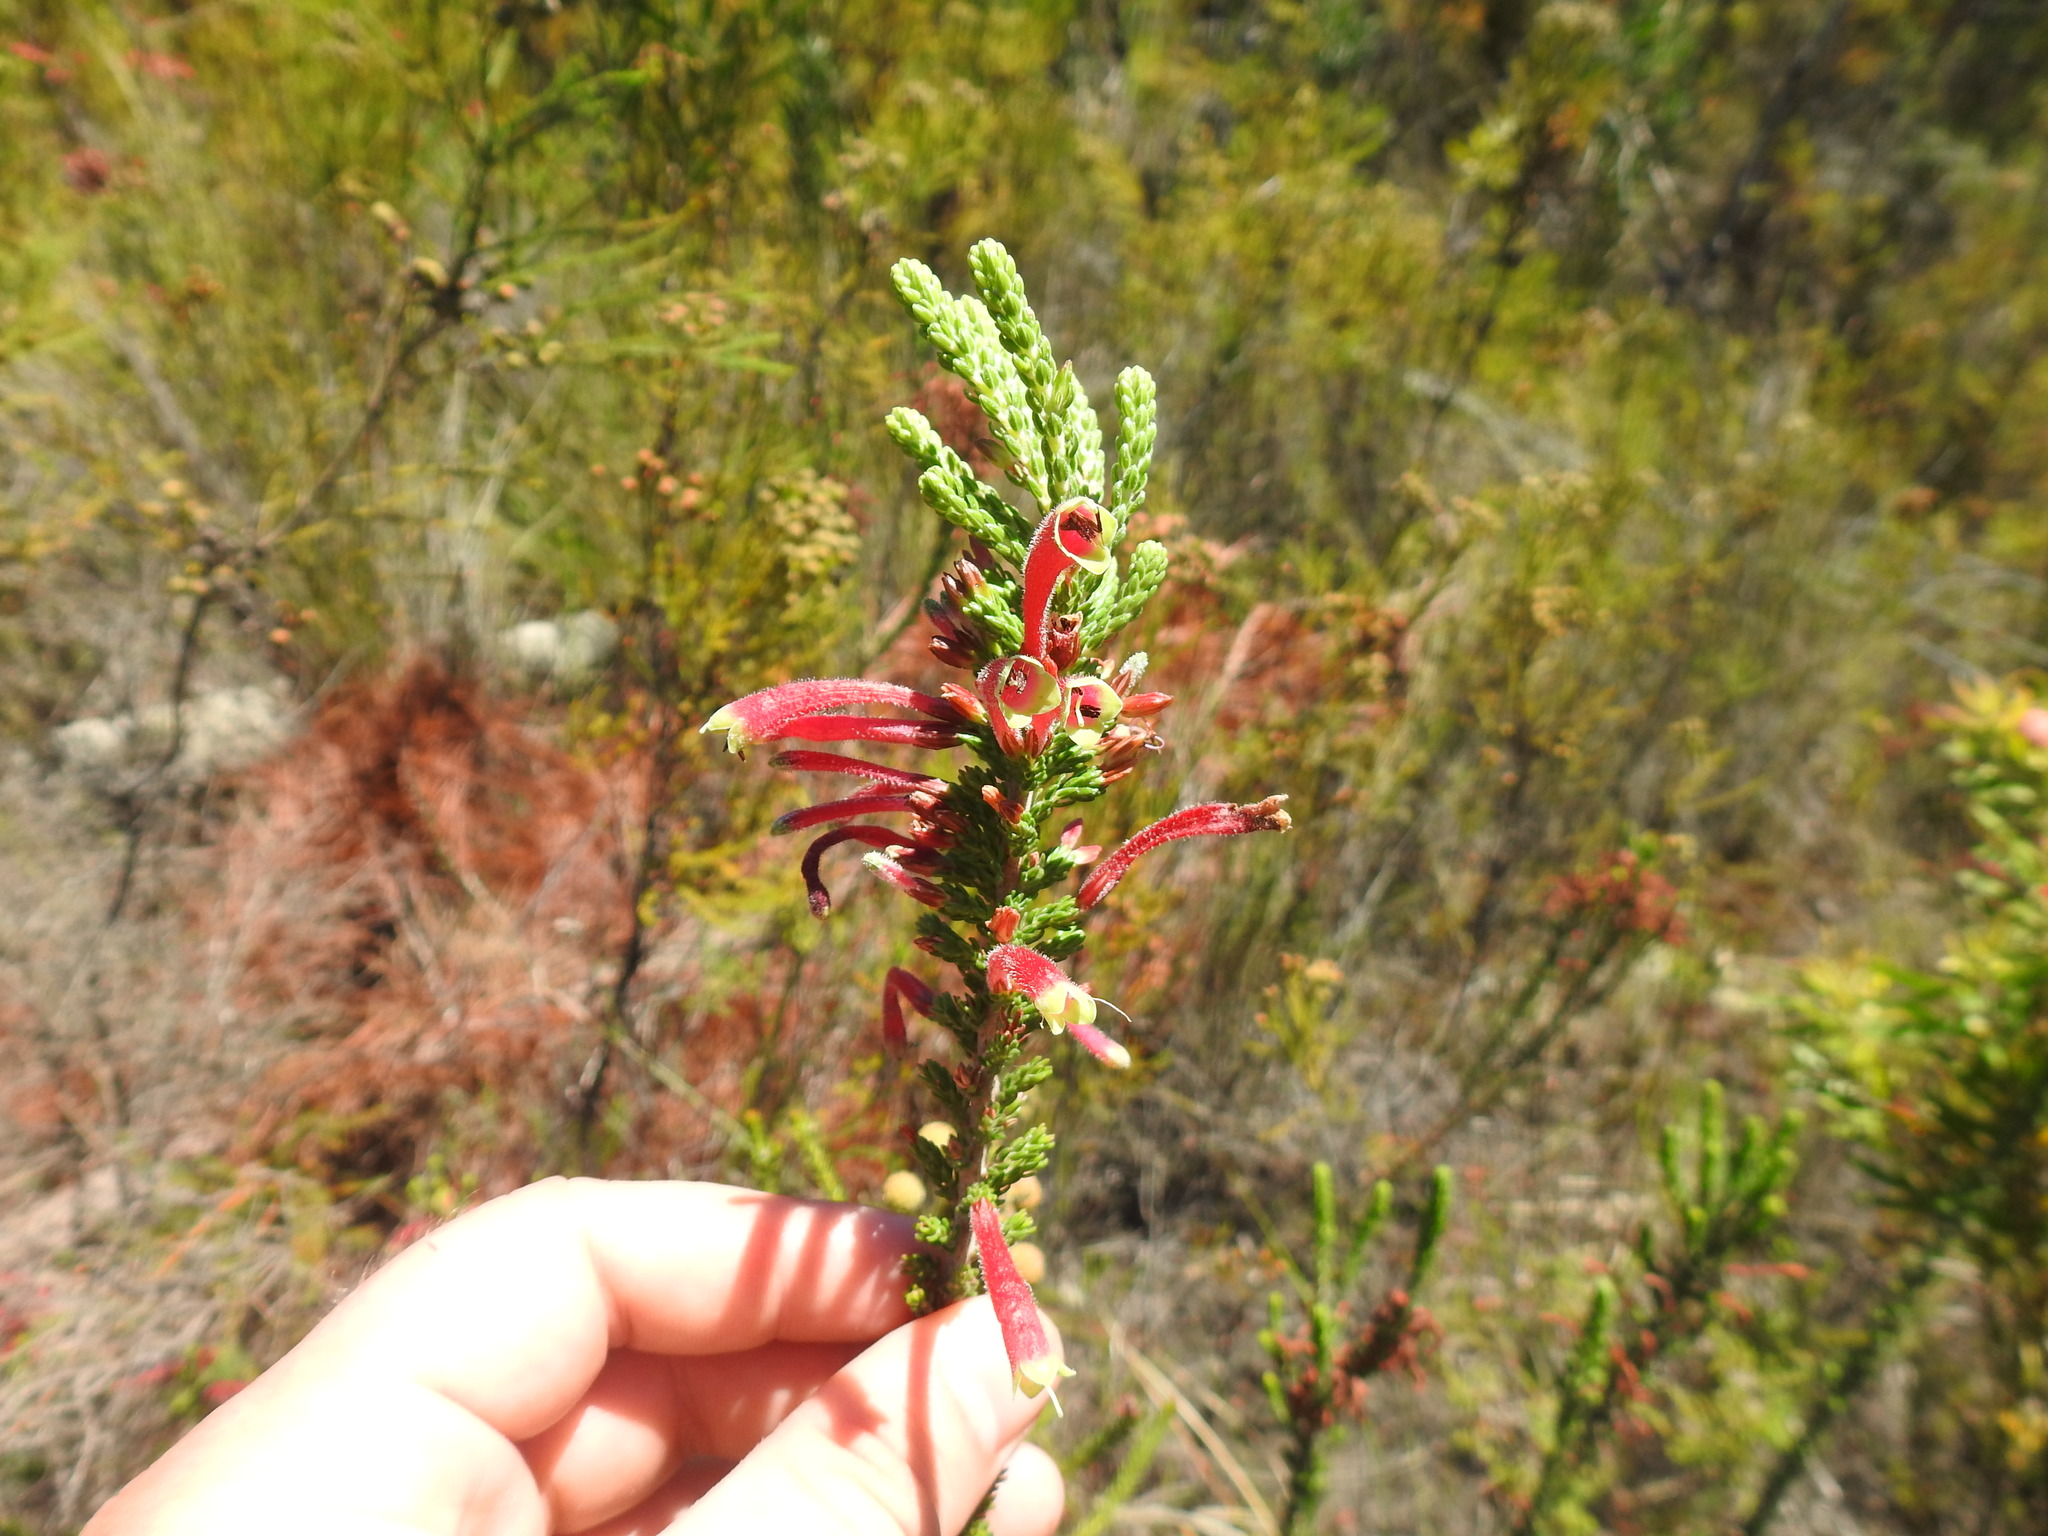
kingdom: Plantae
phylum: Tracheophyta
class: Magnoliopsida
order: Ericales
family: Ericaceae
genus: Erica
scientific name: Erica densifolia
